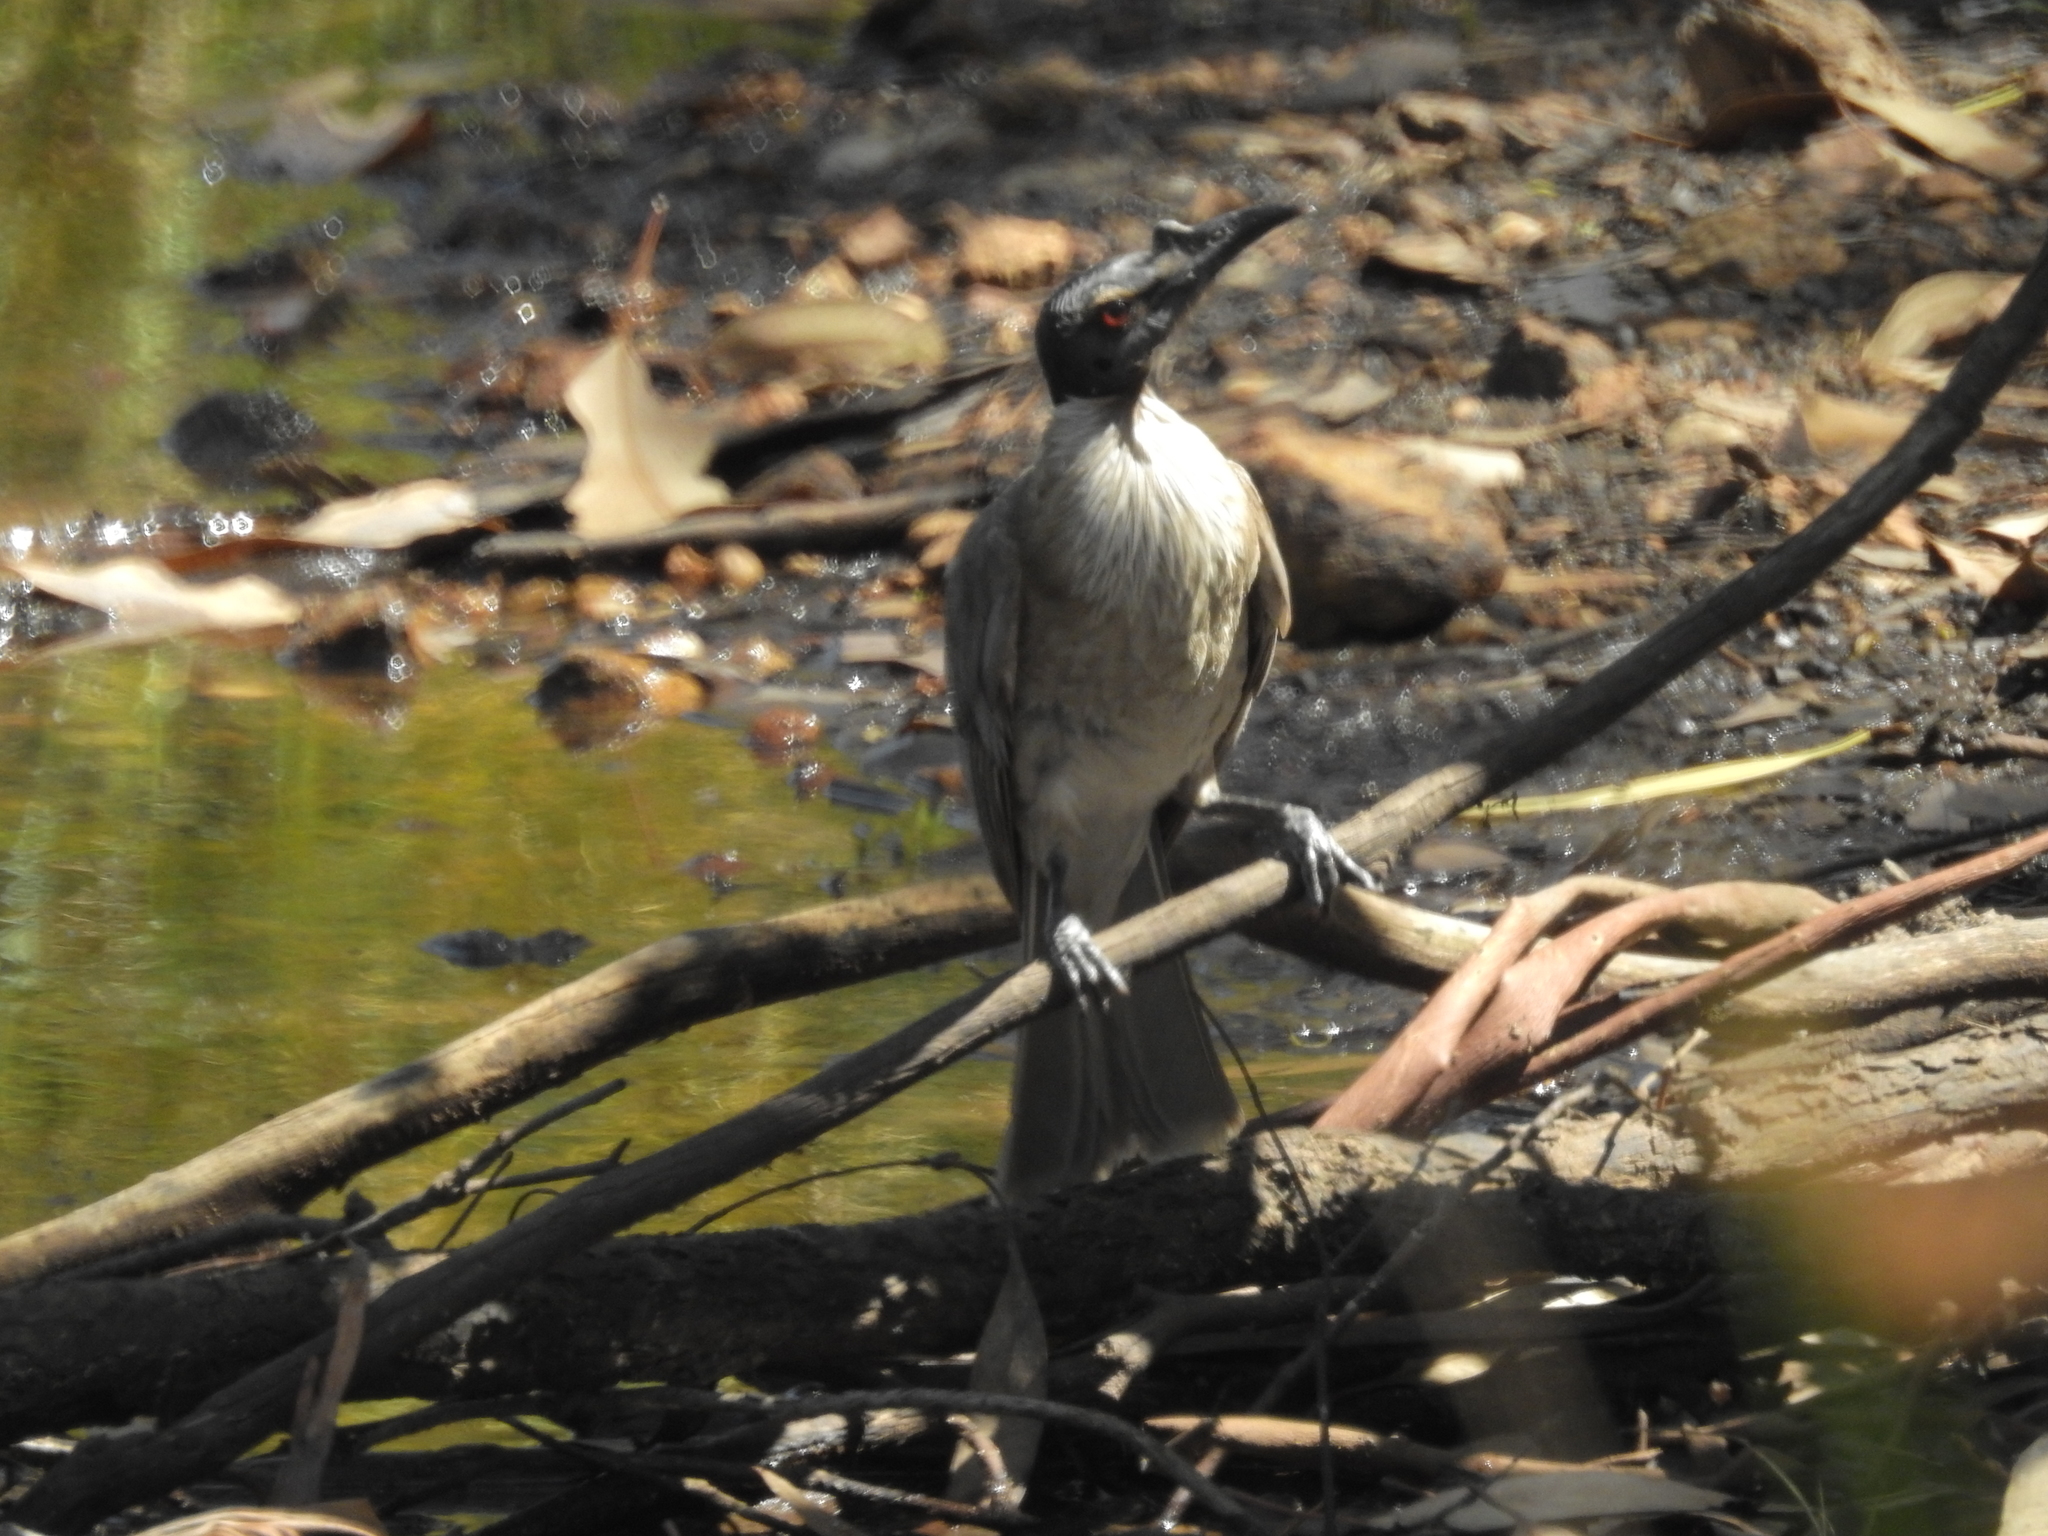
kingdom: Animalia
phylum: Chordata
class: Aves
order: Passeriformes
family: Meliphagidae
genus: Philemon
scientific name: Philemon corniculatus
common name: Noisy friarbird
